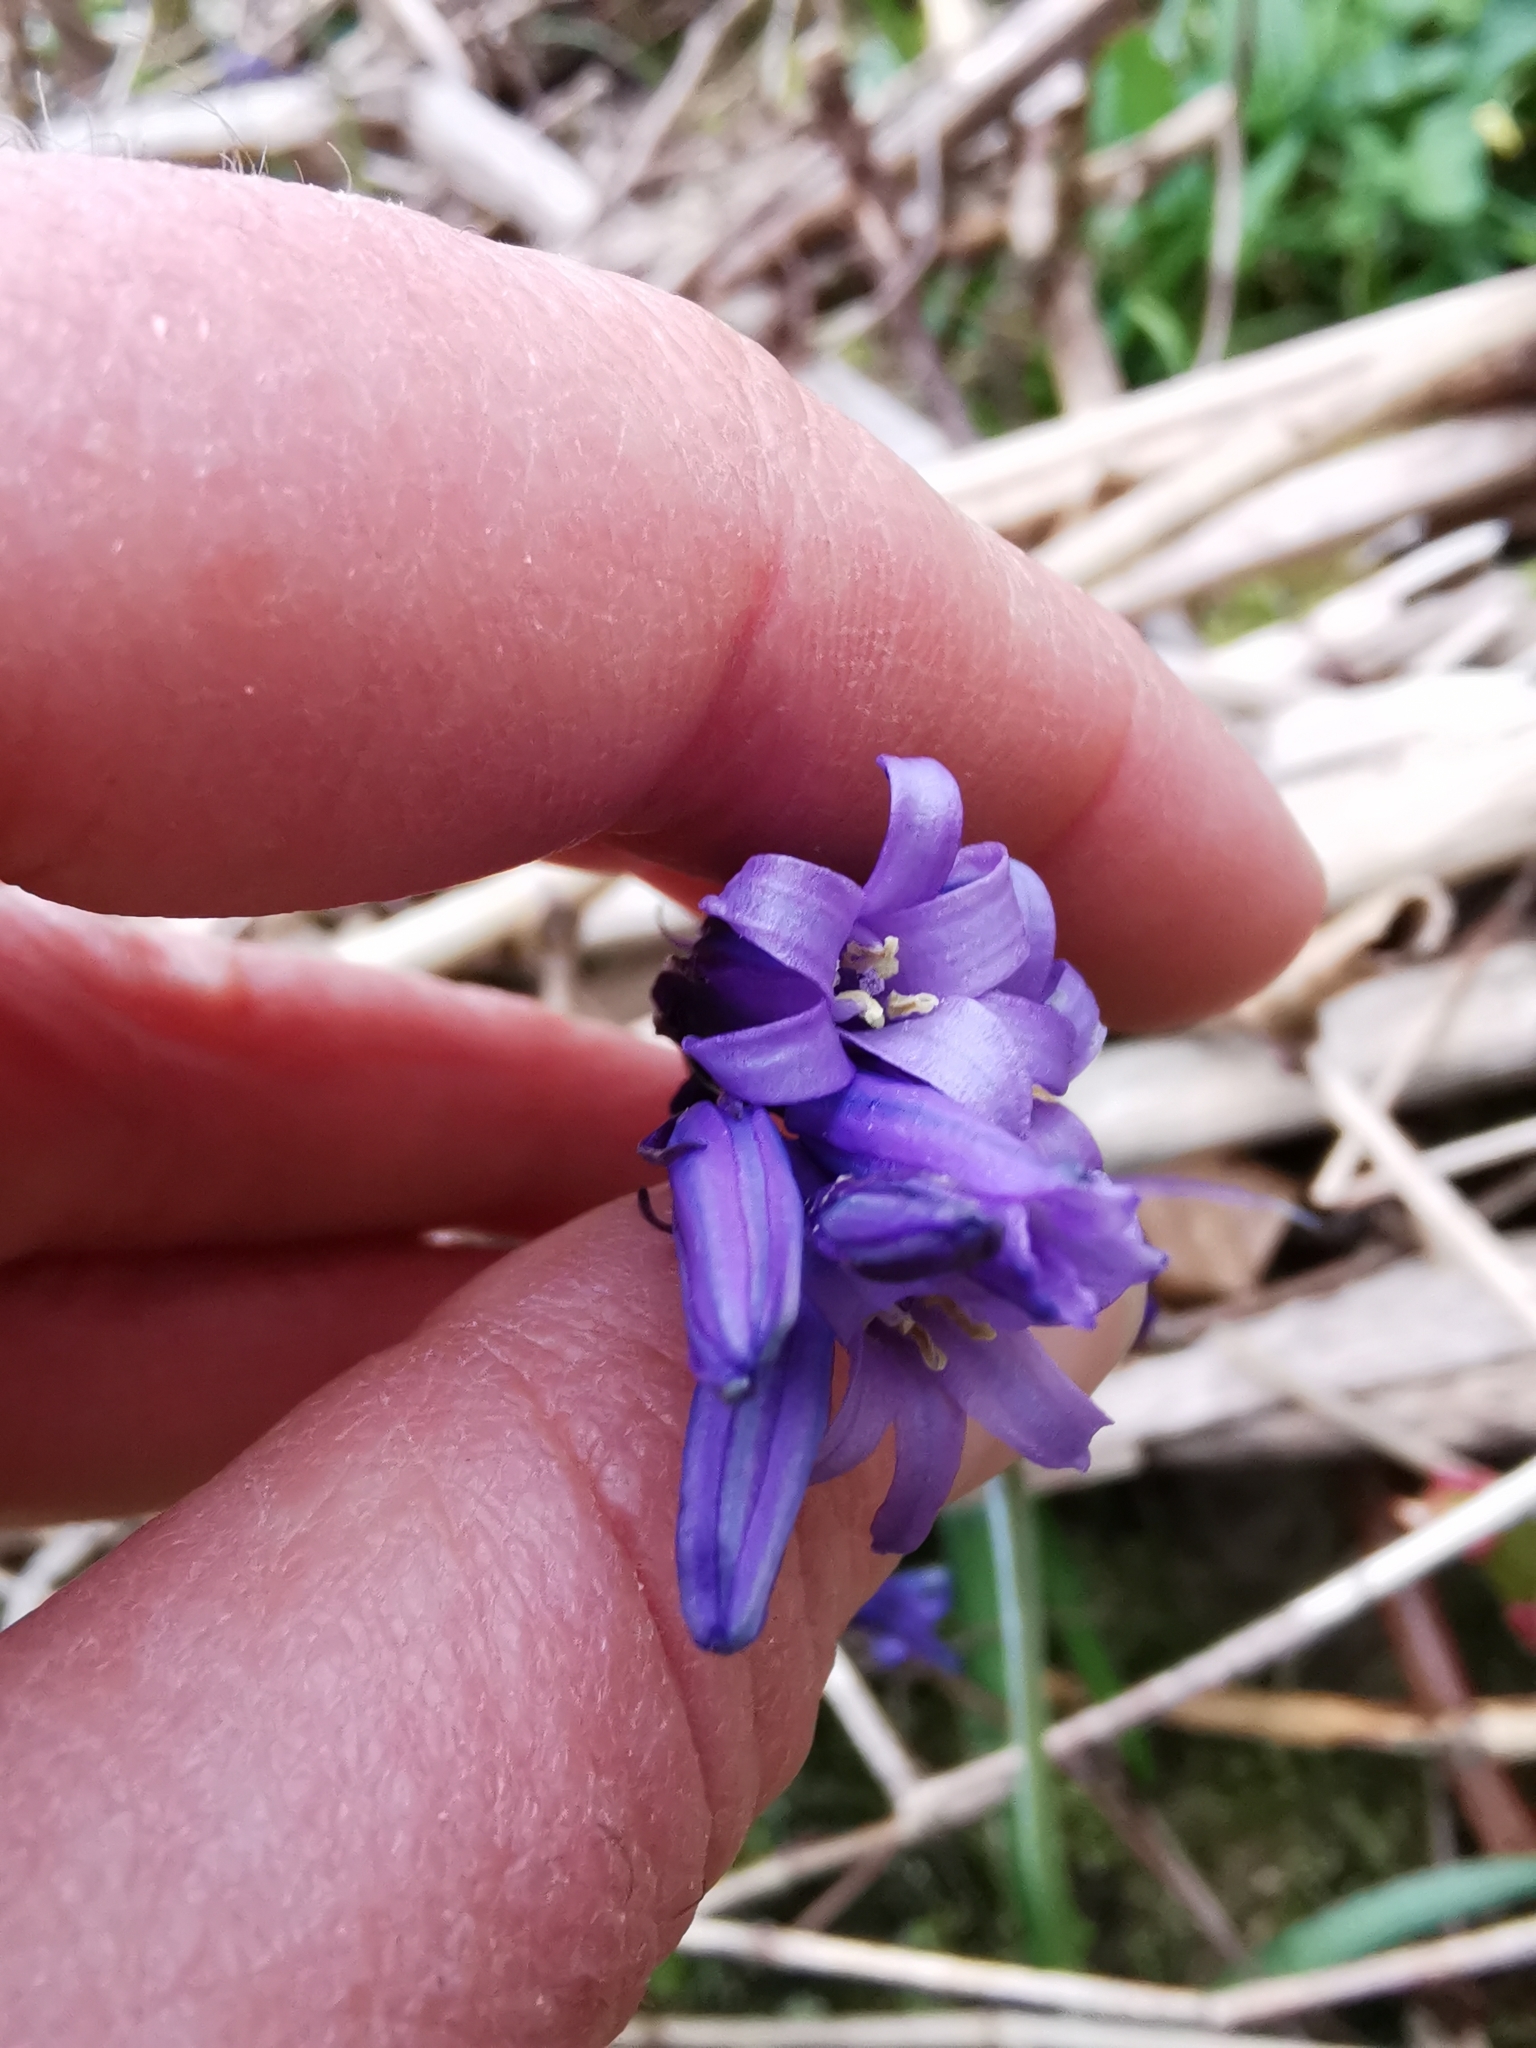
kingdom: Plantae
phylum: Tracheophyta
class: Liliopsida
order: Asparagales
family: Asparagaceae
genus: Hyacinthoides
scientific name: Hyacinthoides non-scripta
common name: Bluebell
